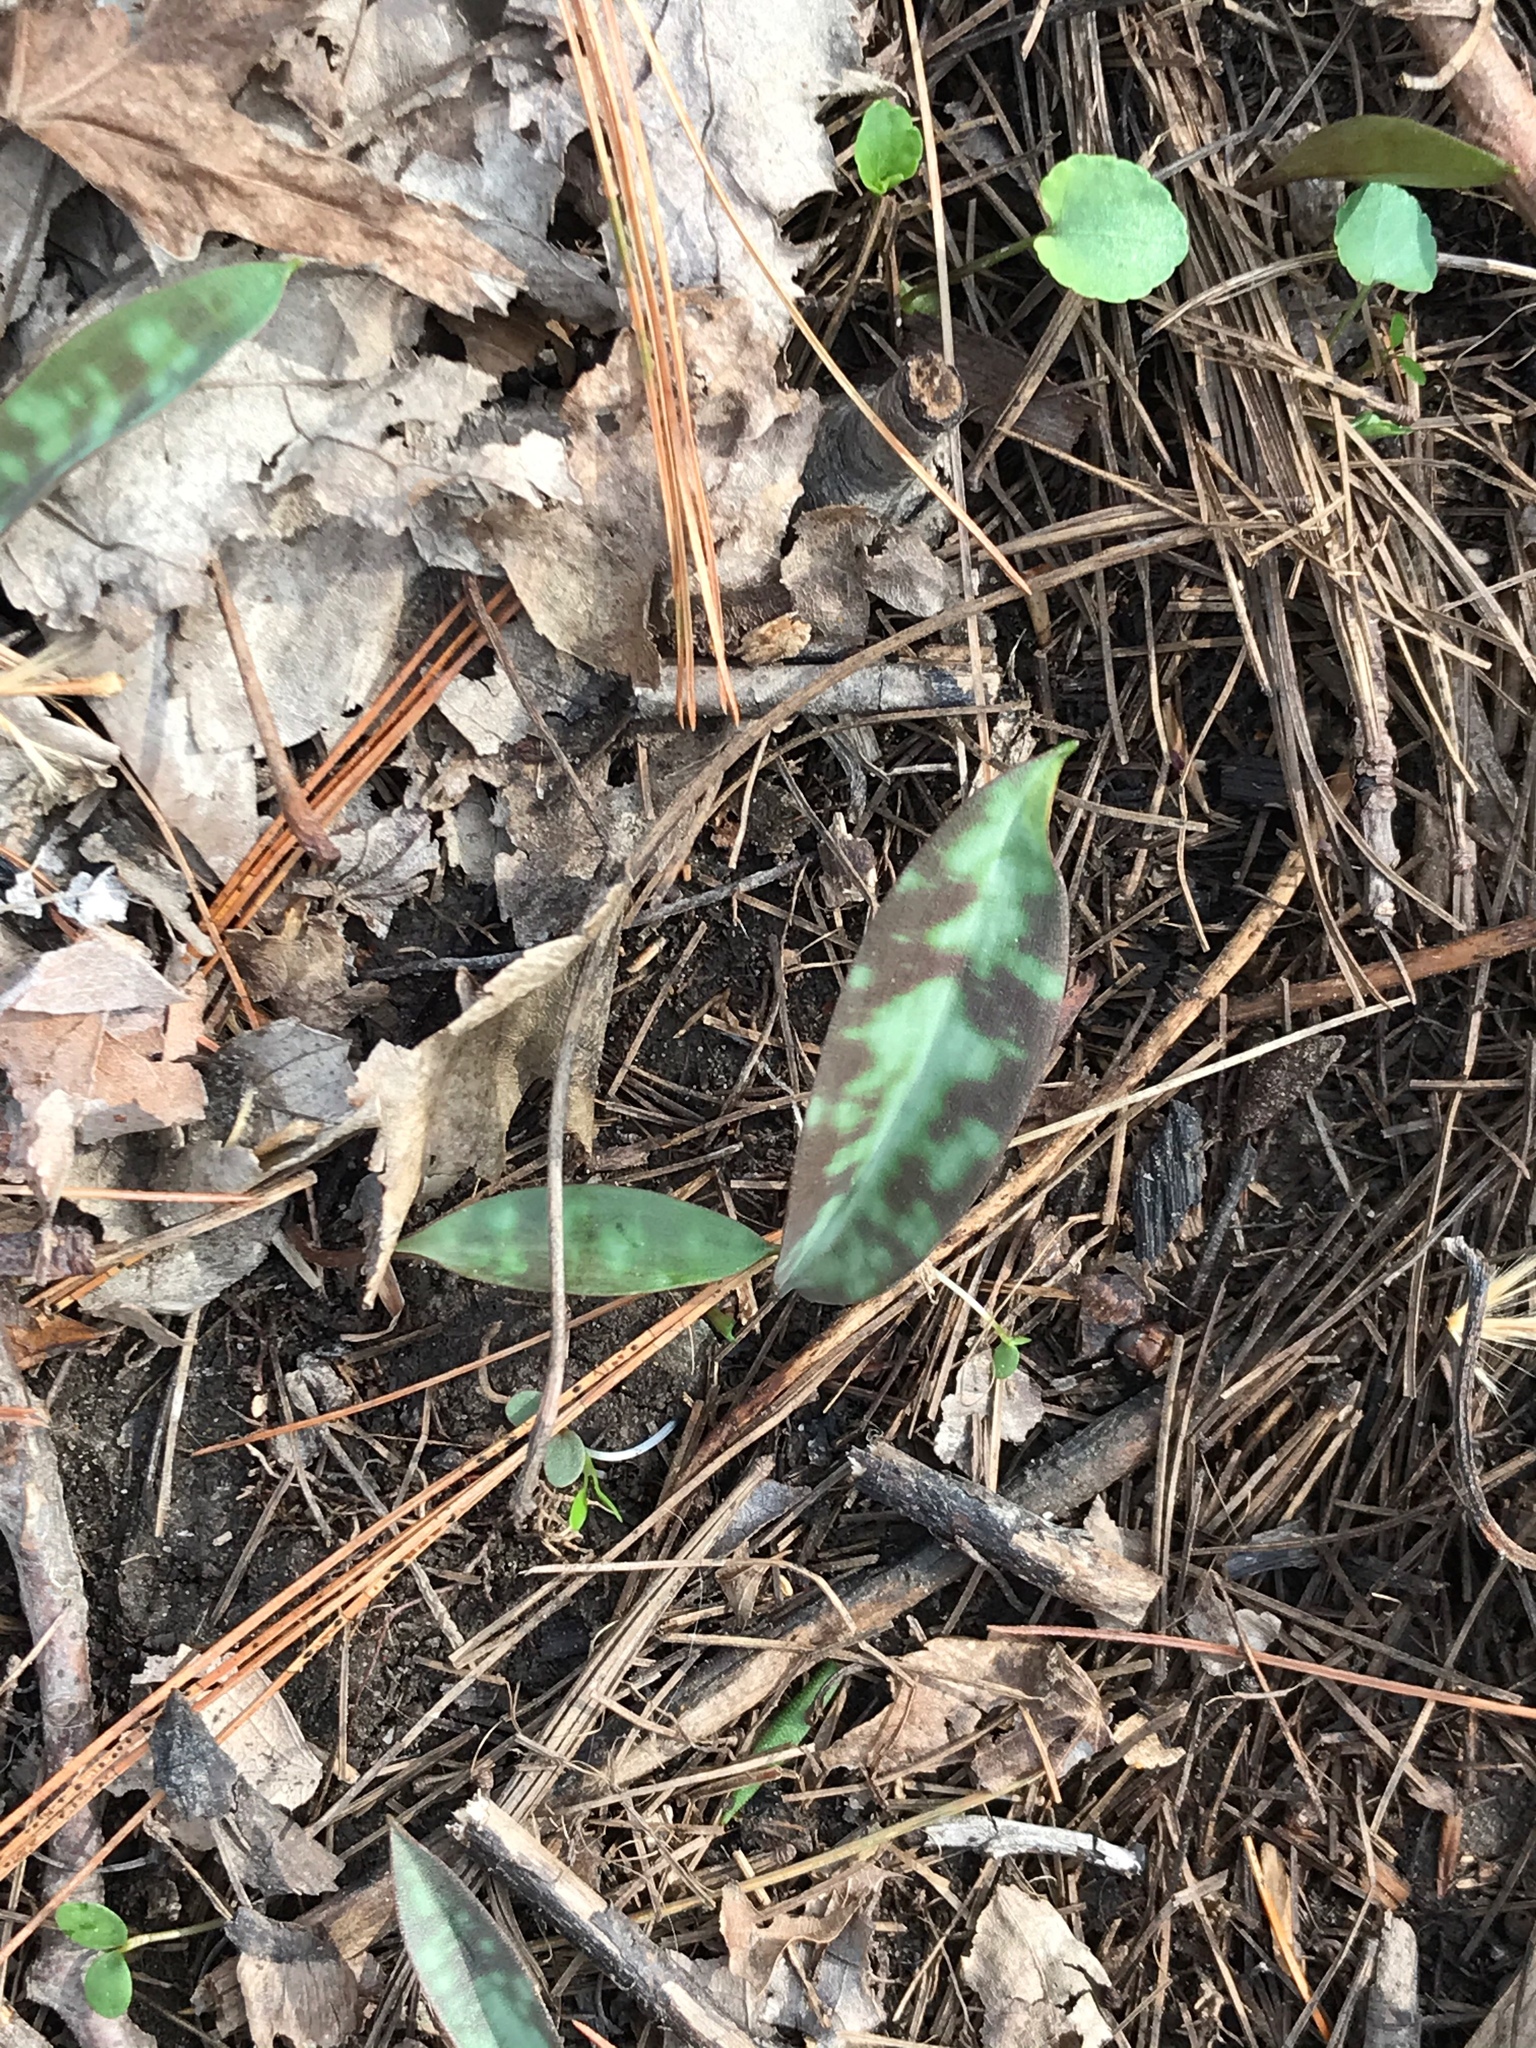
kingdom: Plantae
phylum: Tracheophyta
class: Liliopsida
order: Liliales
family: Liliaceae
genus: Erythronium
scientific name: Erythronium americanum
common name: Yellow adder's-tongue
